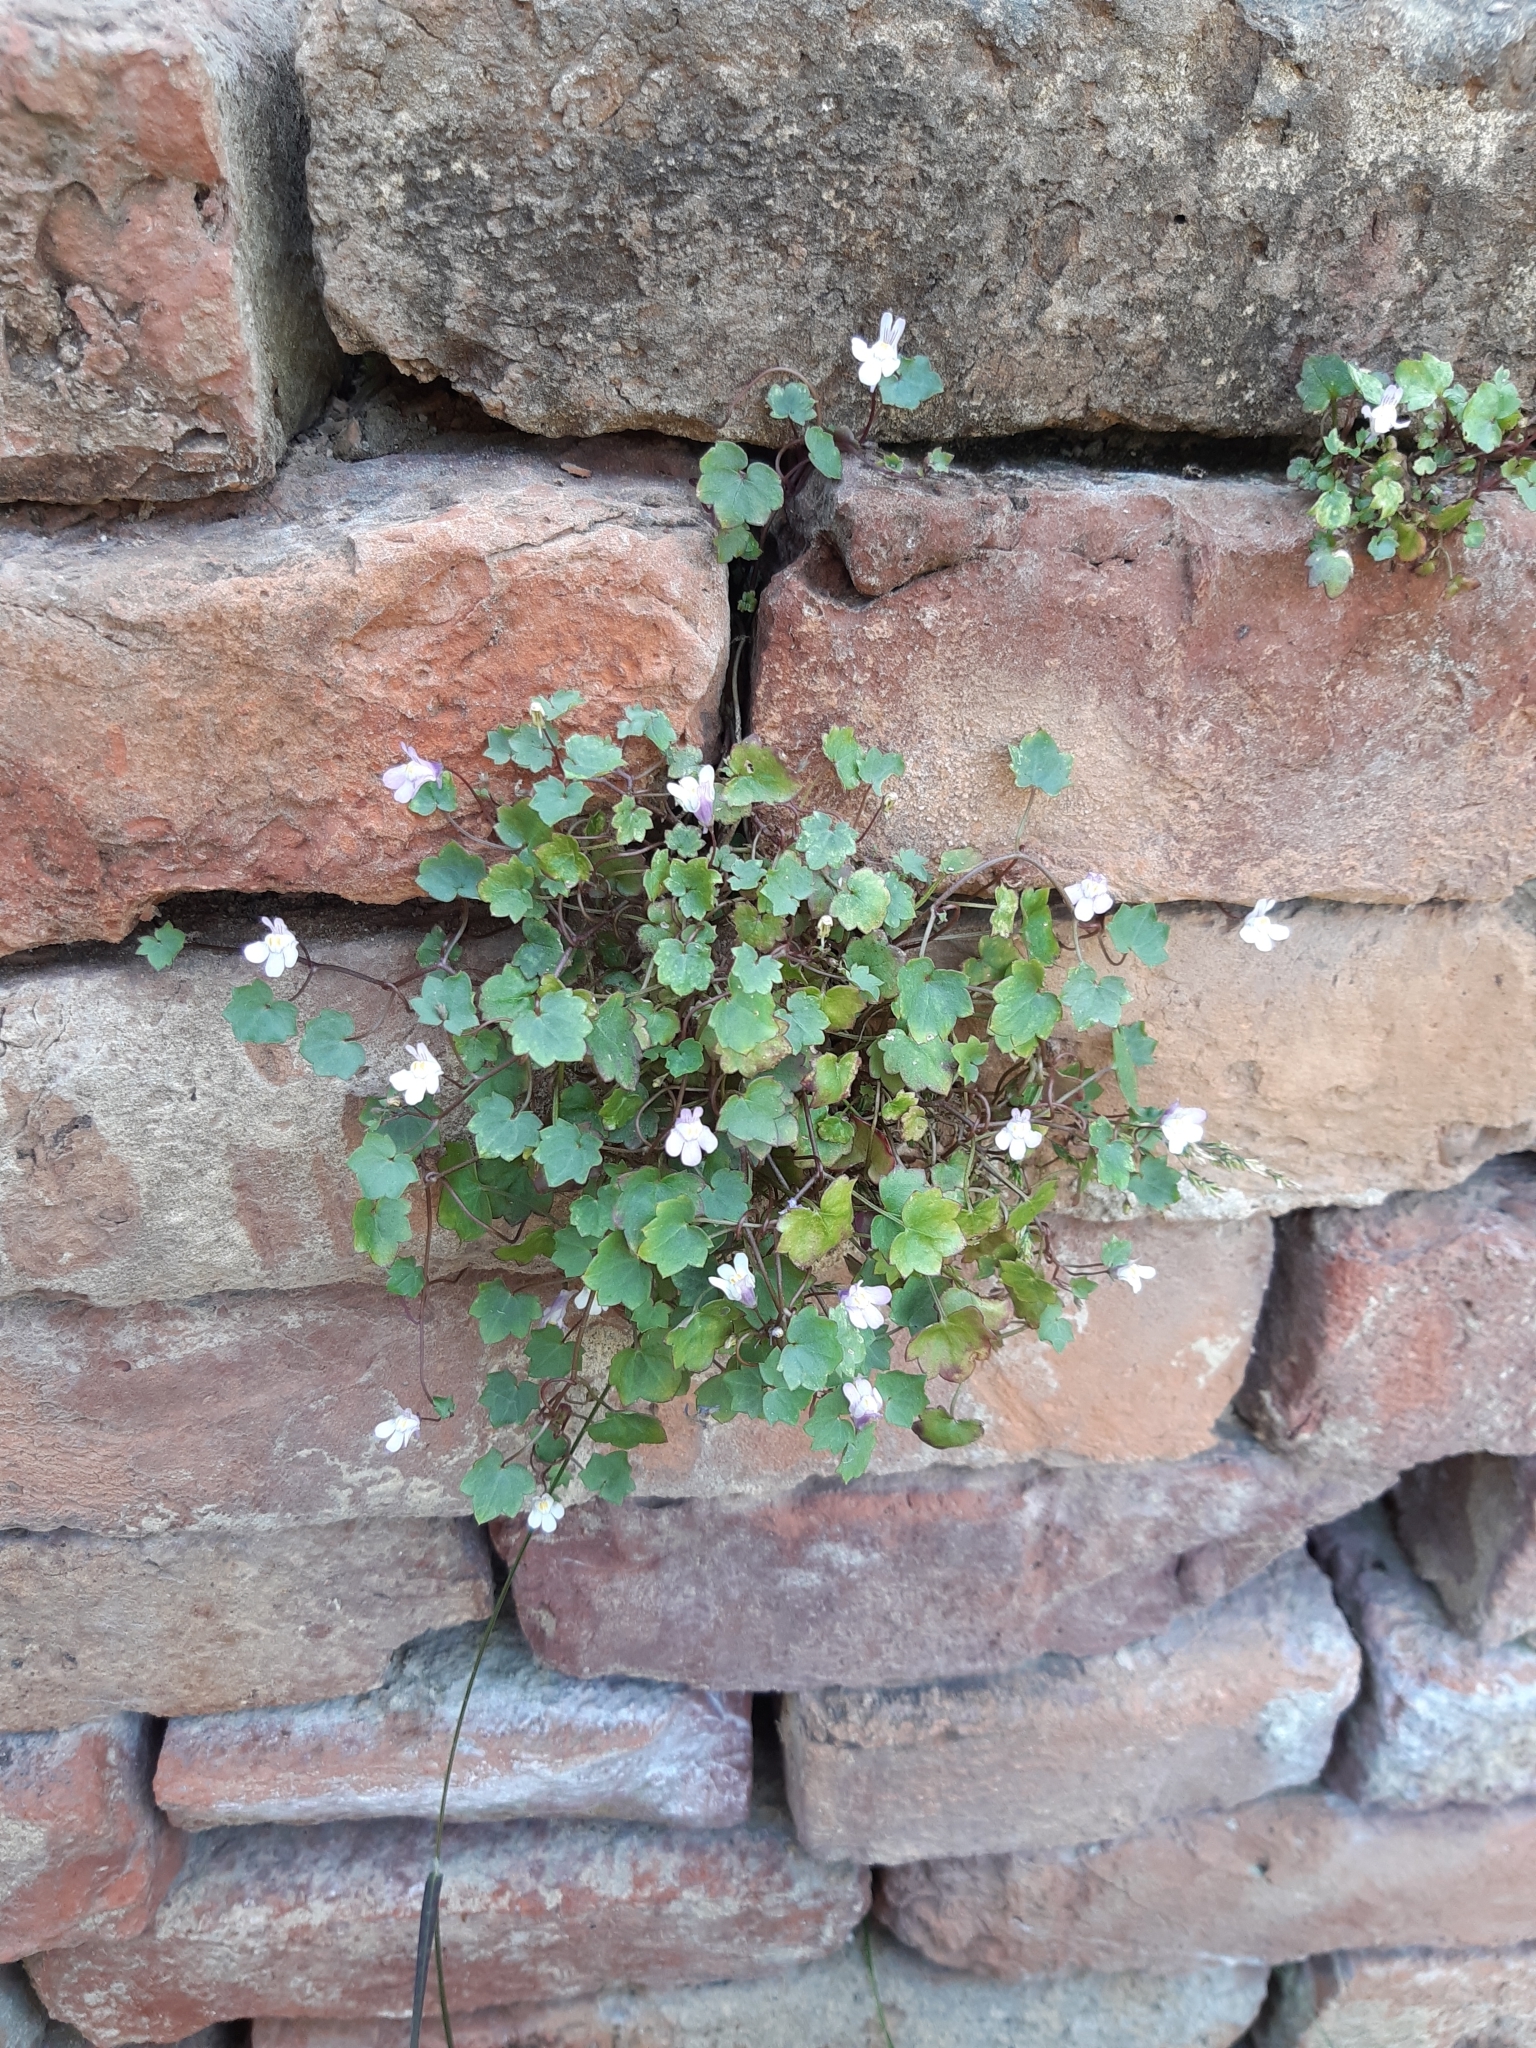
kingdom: Plantae
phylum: Tracheophyta
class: Magnoliopsida
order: Lamiales
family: Plantaginaceae
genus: Cymbalaria
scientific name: Cymbalaria muralis
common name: Ivy-leaved toadflax
